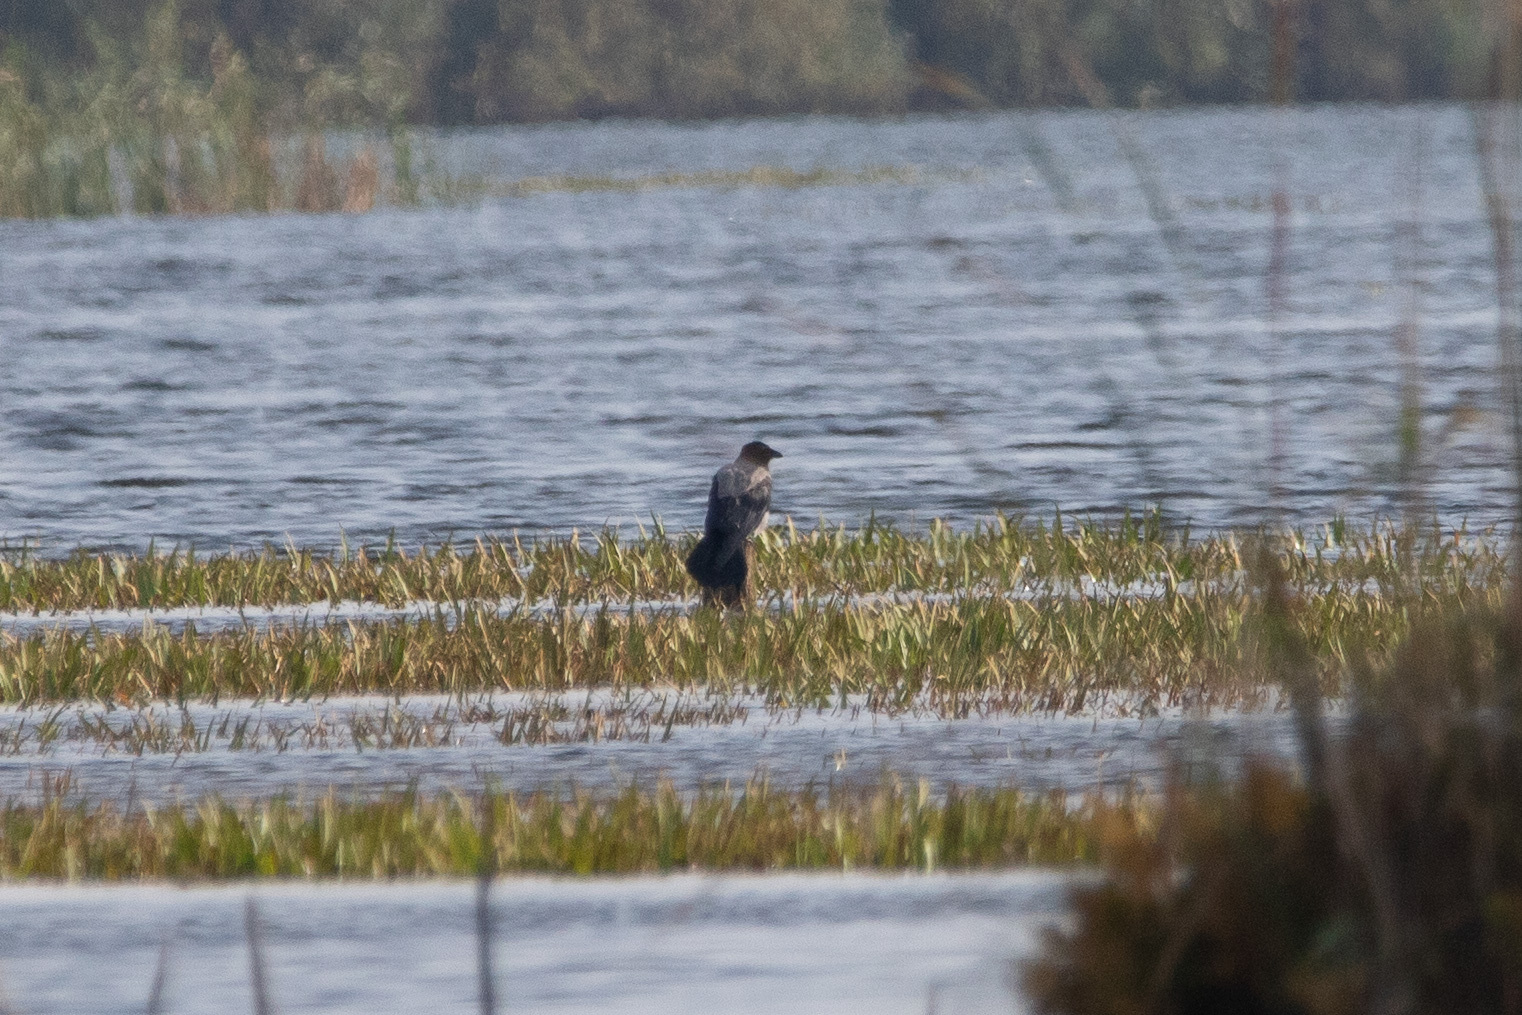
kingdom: Animalia
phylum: Chordata
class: Aves
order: Passeriformes
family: Corvidae
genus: Corvus
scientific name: Corvus cornix
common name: Hooded crow
